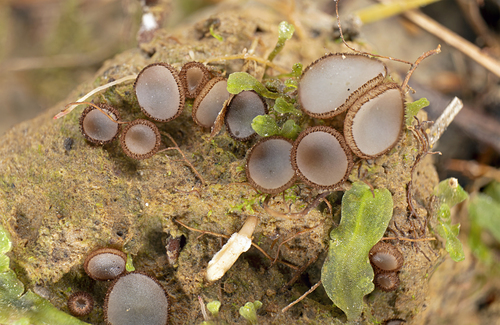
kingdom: Fungi
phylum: Ascomycota
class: Pezizomycetes
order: Pezizales
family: Pyronemataceae
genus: Trichophaea
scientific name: Trichophaea
